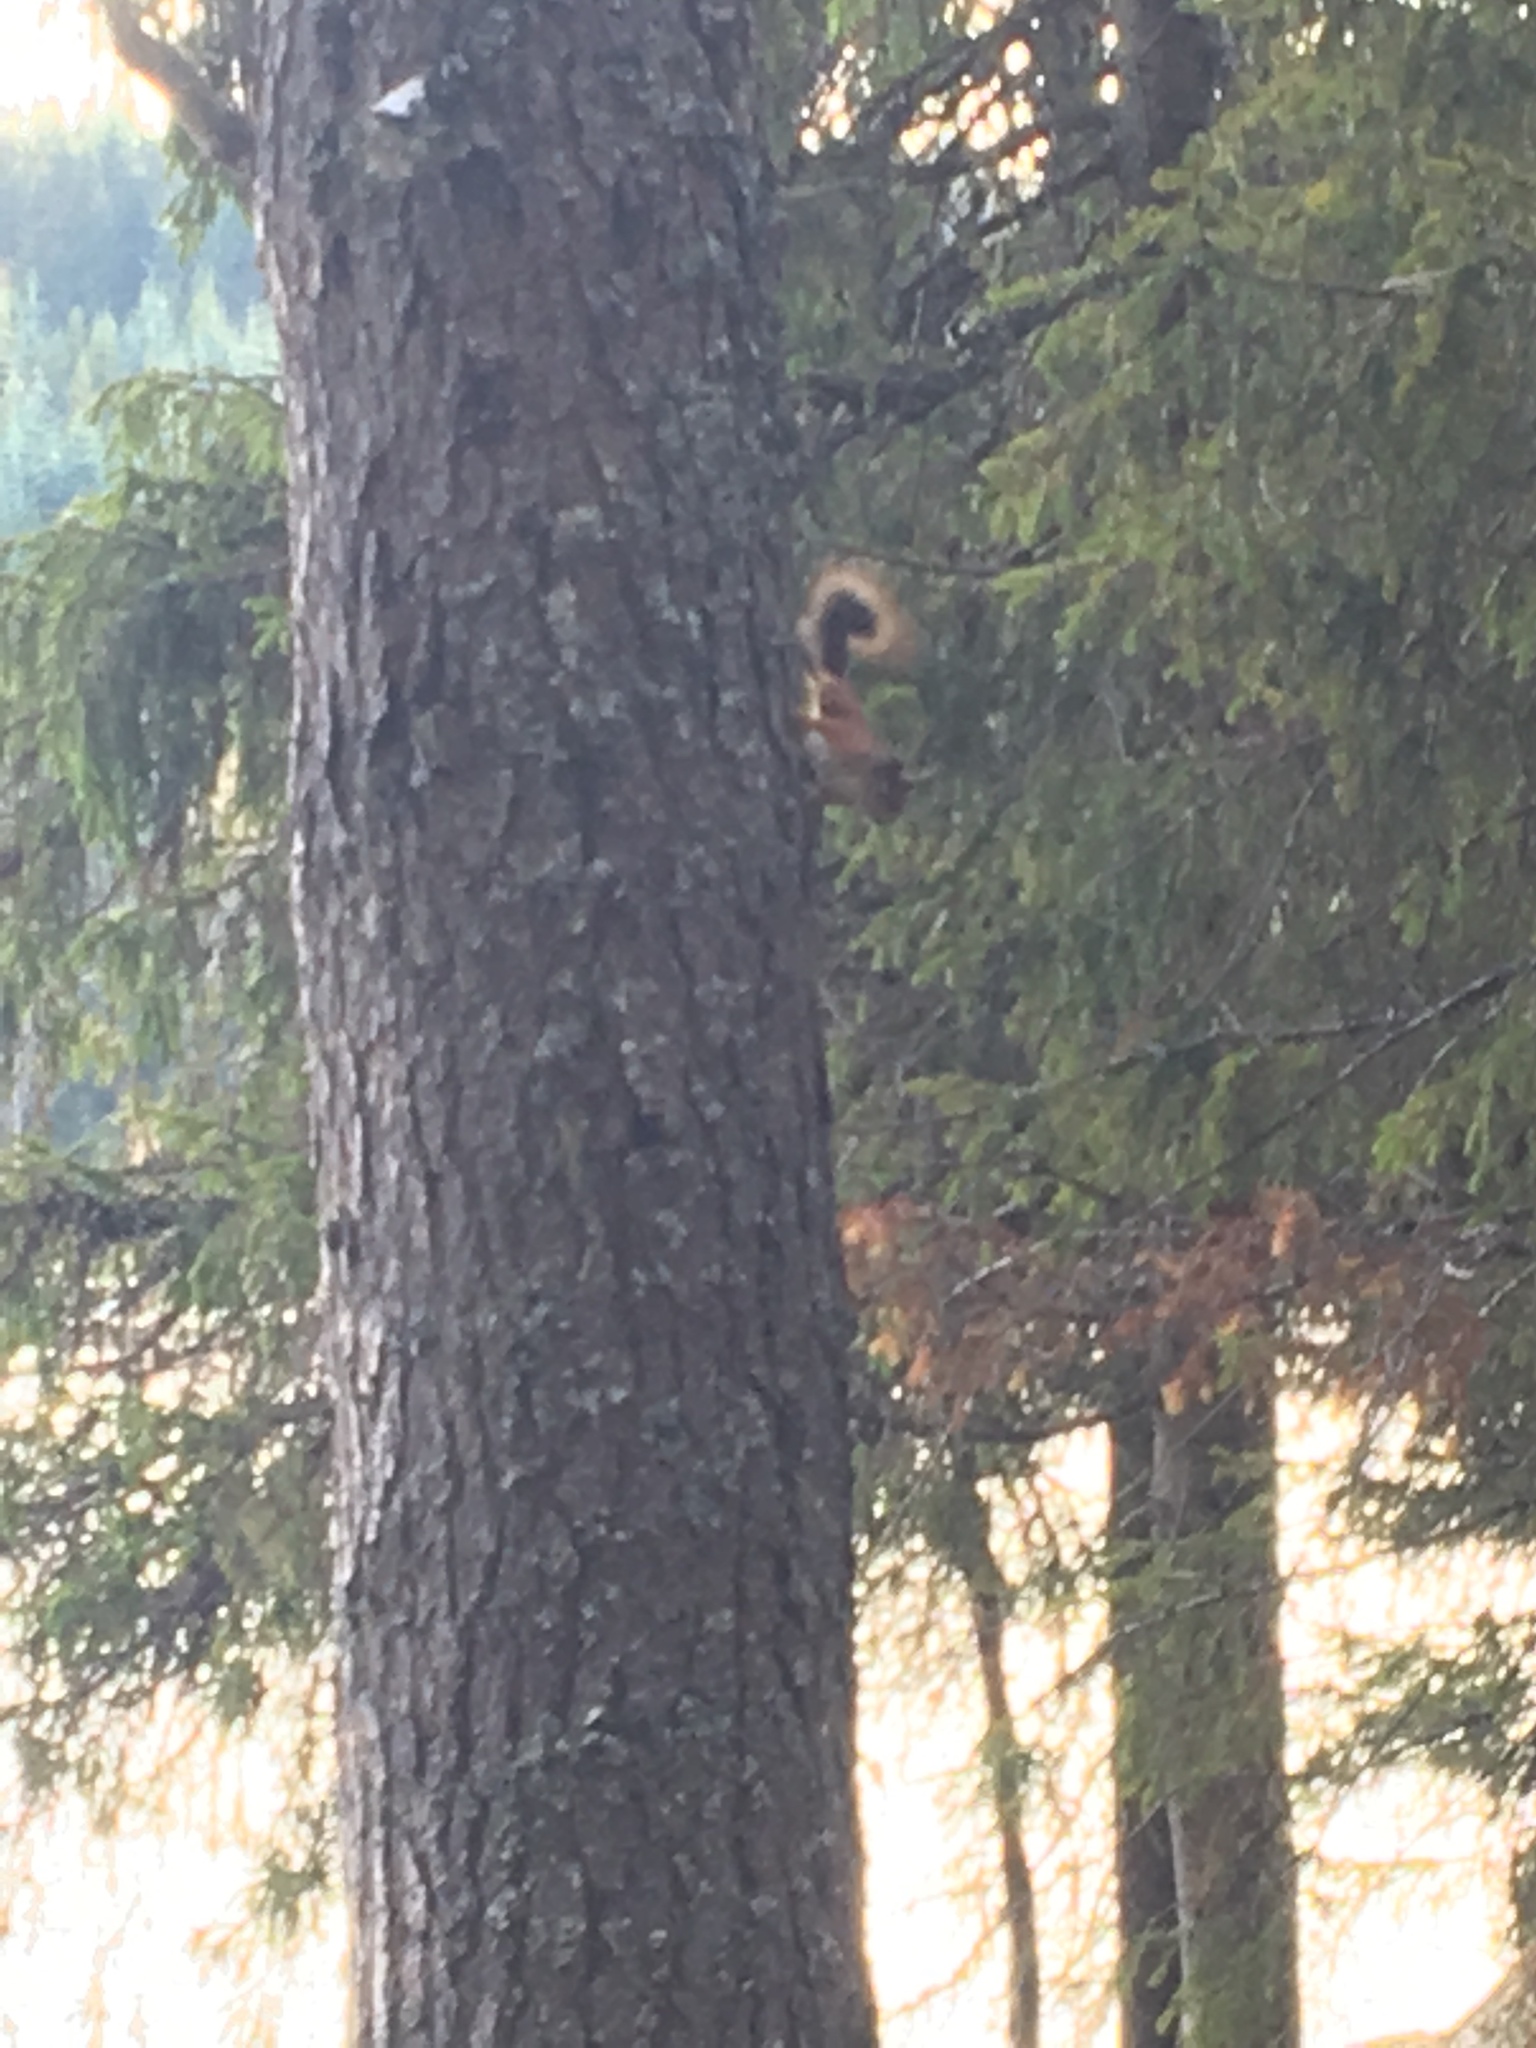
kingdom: Animalia
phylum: Chordata
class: Mammalia
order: Rodentia
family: Sciuridae
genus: Sciurus
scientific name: Sciurus vulgaris
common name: Eurasian red squirrel
